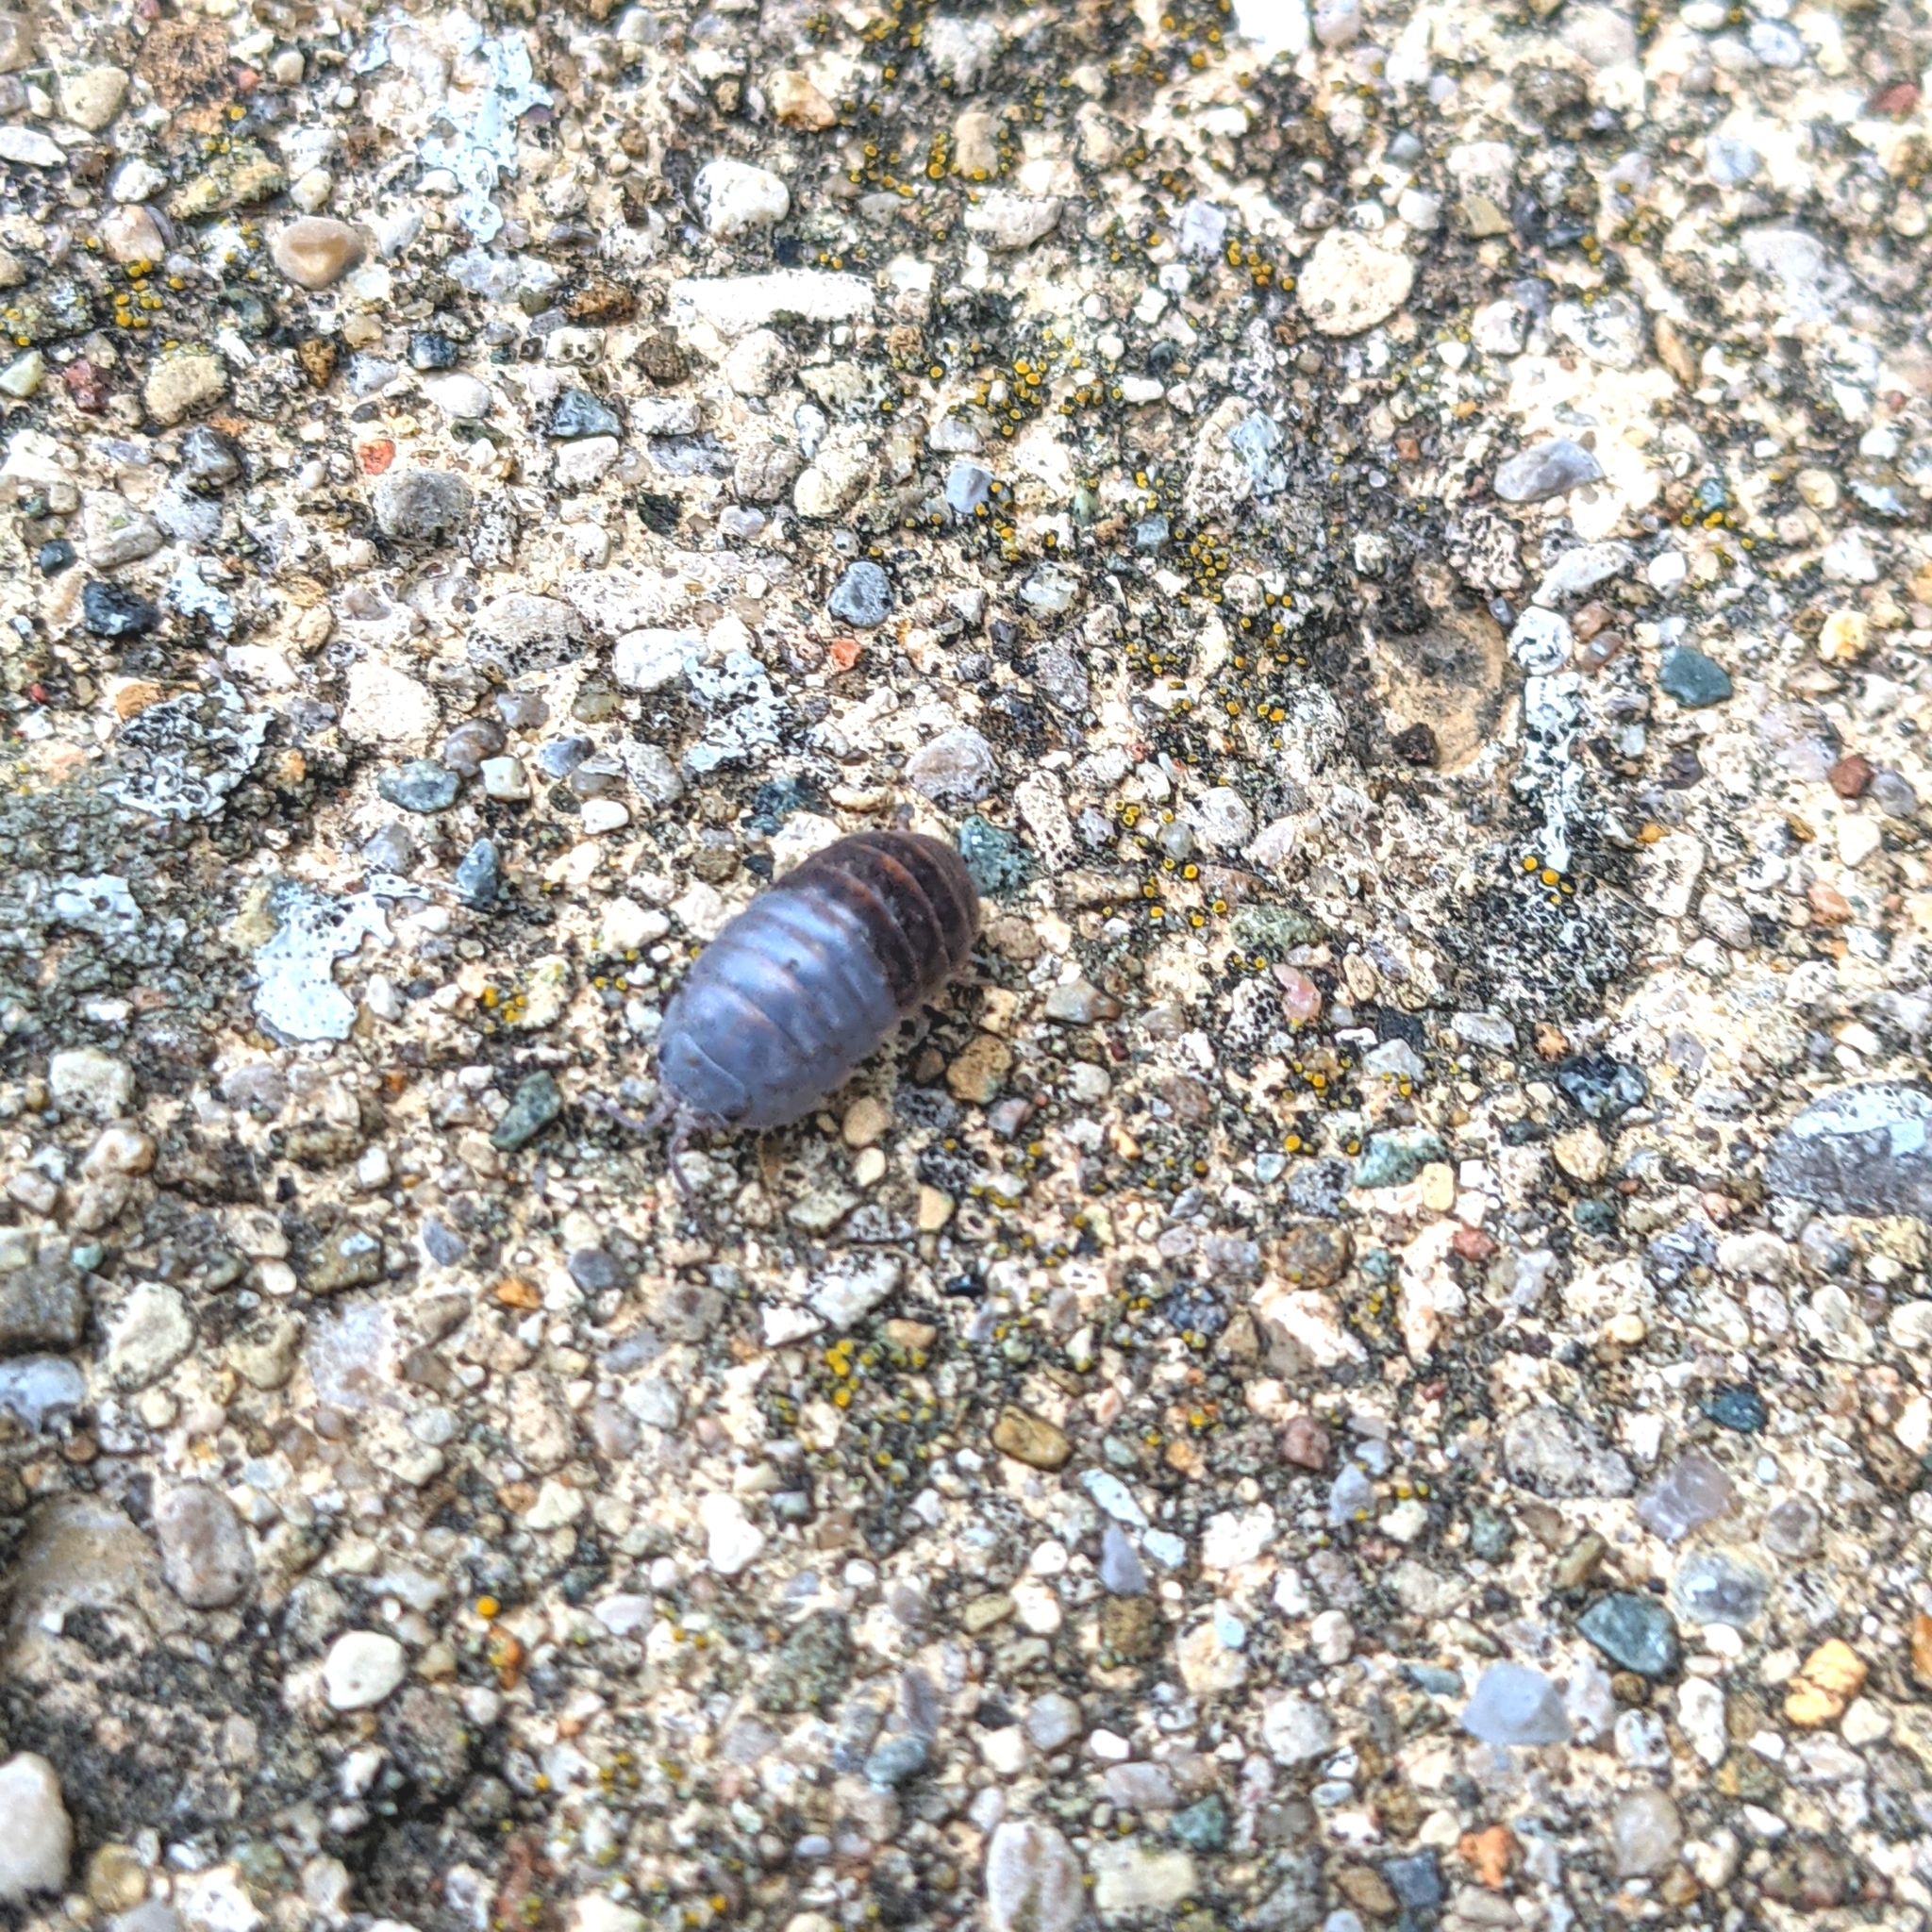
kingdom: Animalia
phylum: Arthropoda
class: Malacostraca
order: Isopoda
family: Armadillidiidae
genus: Armadillidium
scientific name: Armadillidium vulgare
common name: Common pill woodlouse
